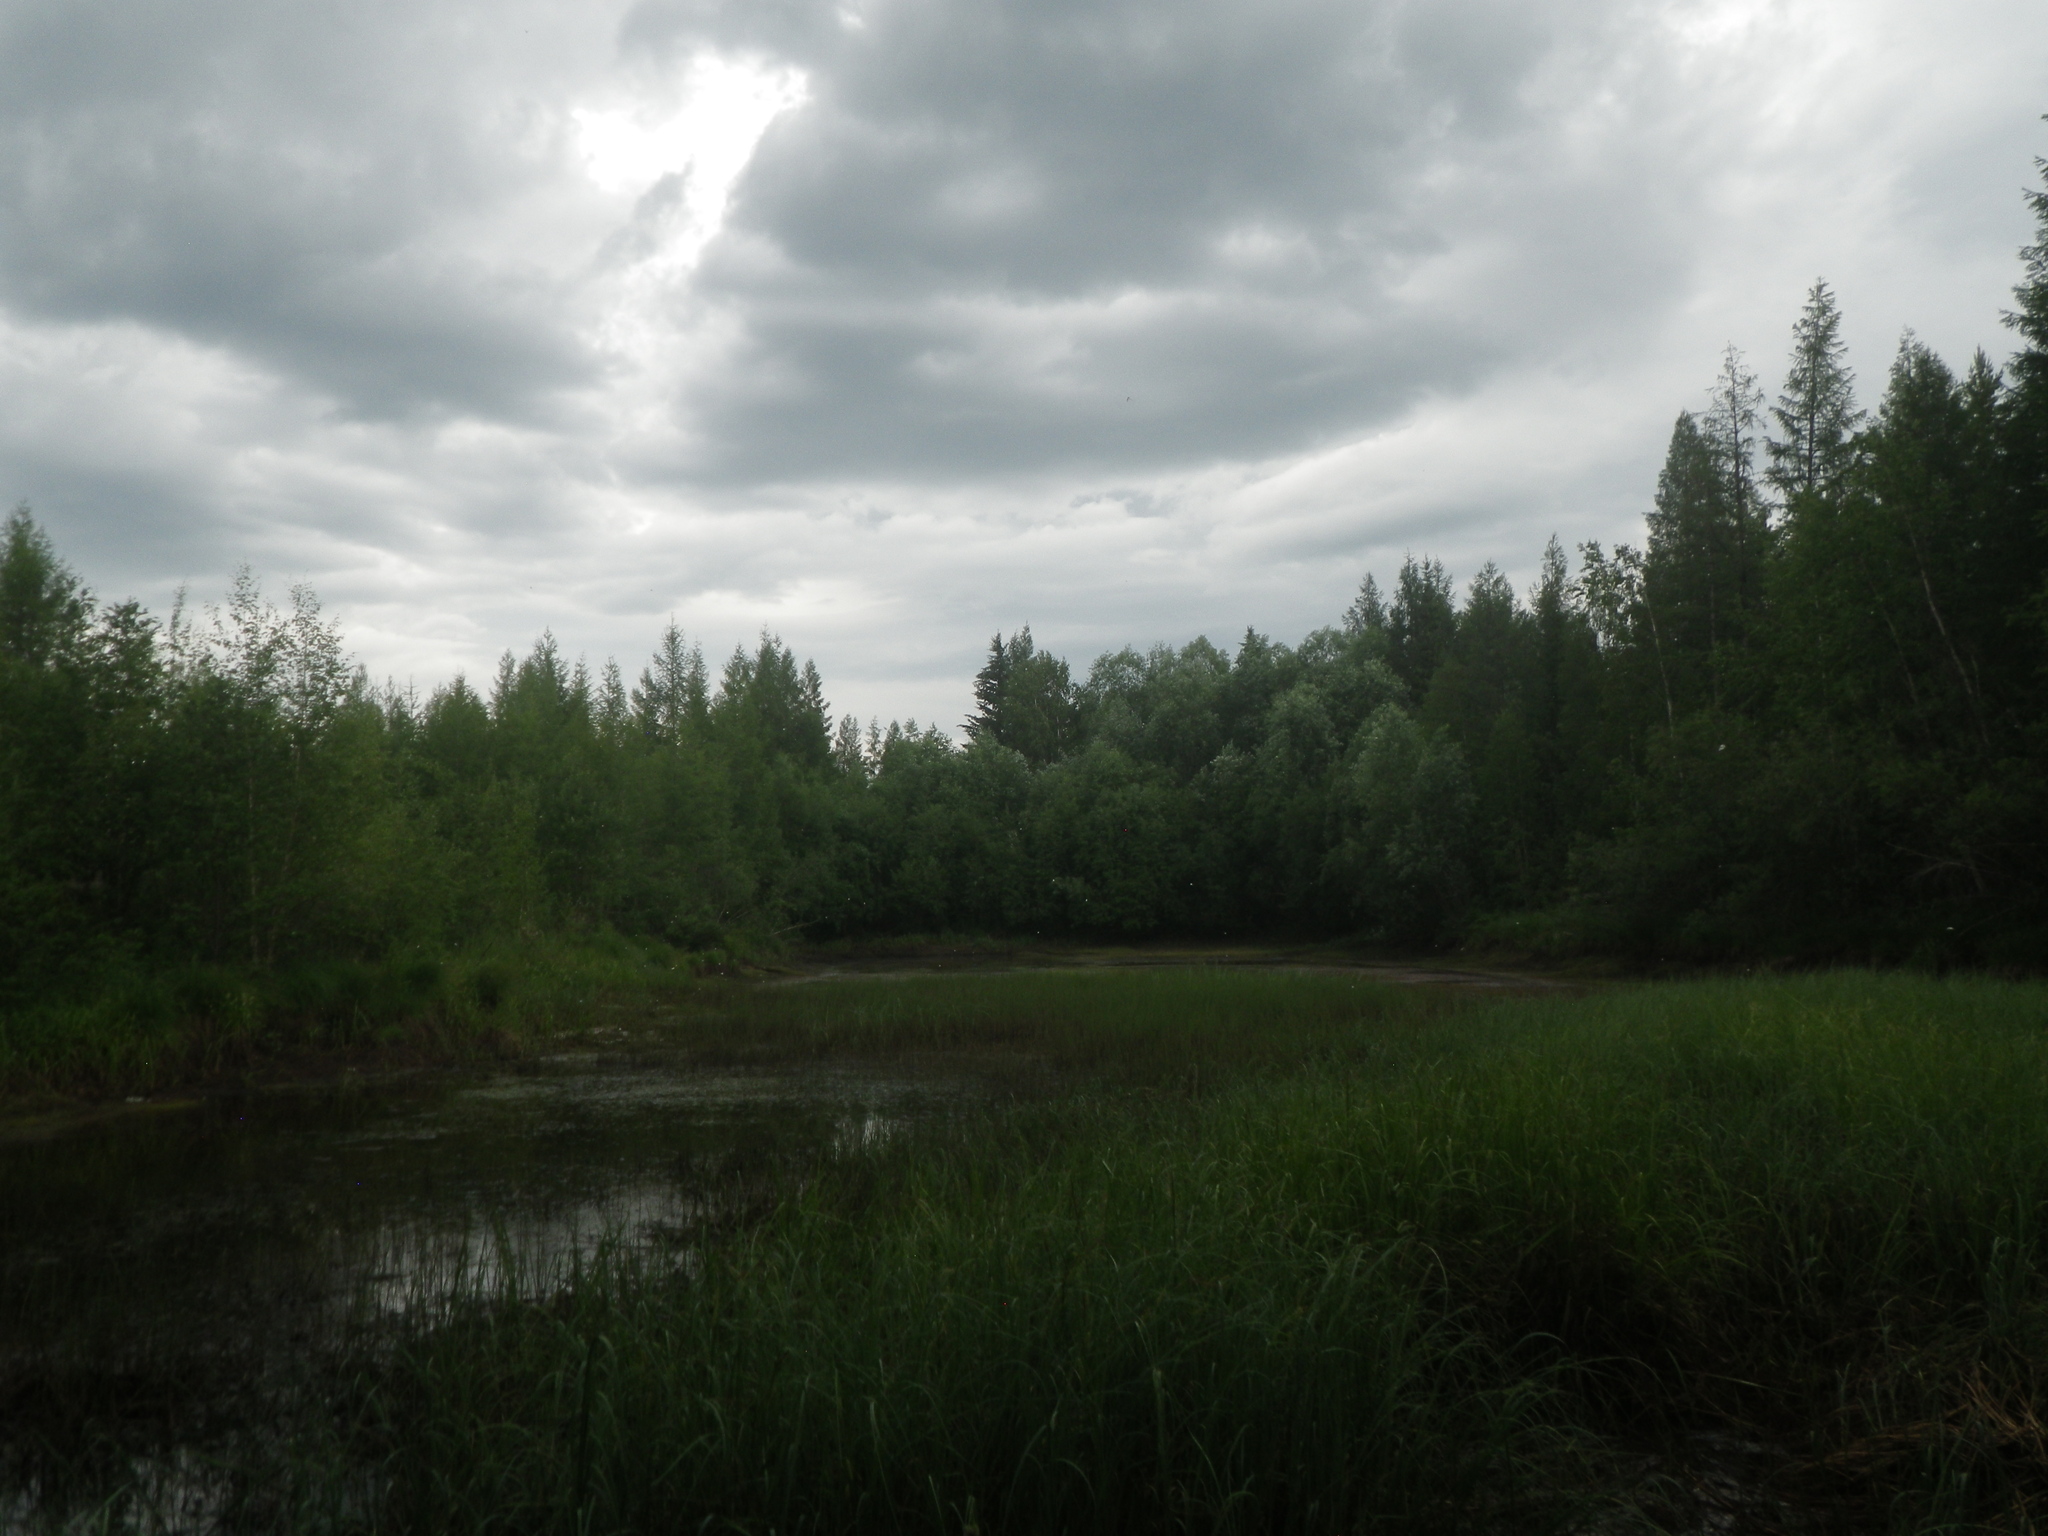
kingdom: Plantae
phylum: Tracheophyta
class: Pinopsida
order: Pinales
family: Pinaceae
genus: Larix
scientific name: Larix gmelinii
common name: Dahurian larch
